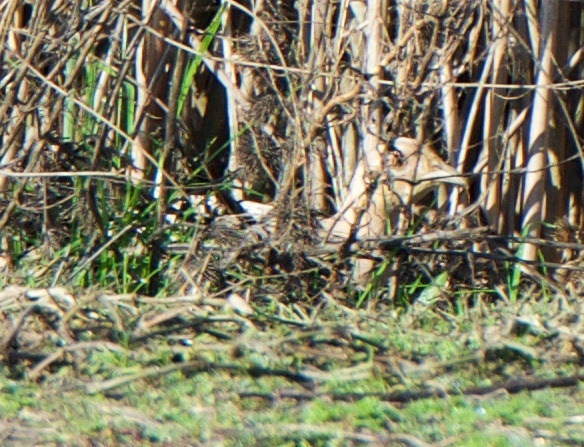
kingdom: Animalia
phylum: Chordata
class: Aves
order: Galliformes
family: Phasianidae
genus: Phasianus
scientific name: Phasianus colchicus
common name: Common pheasant
